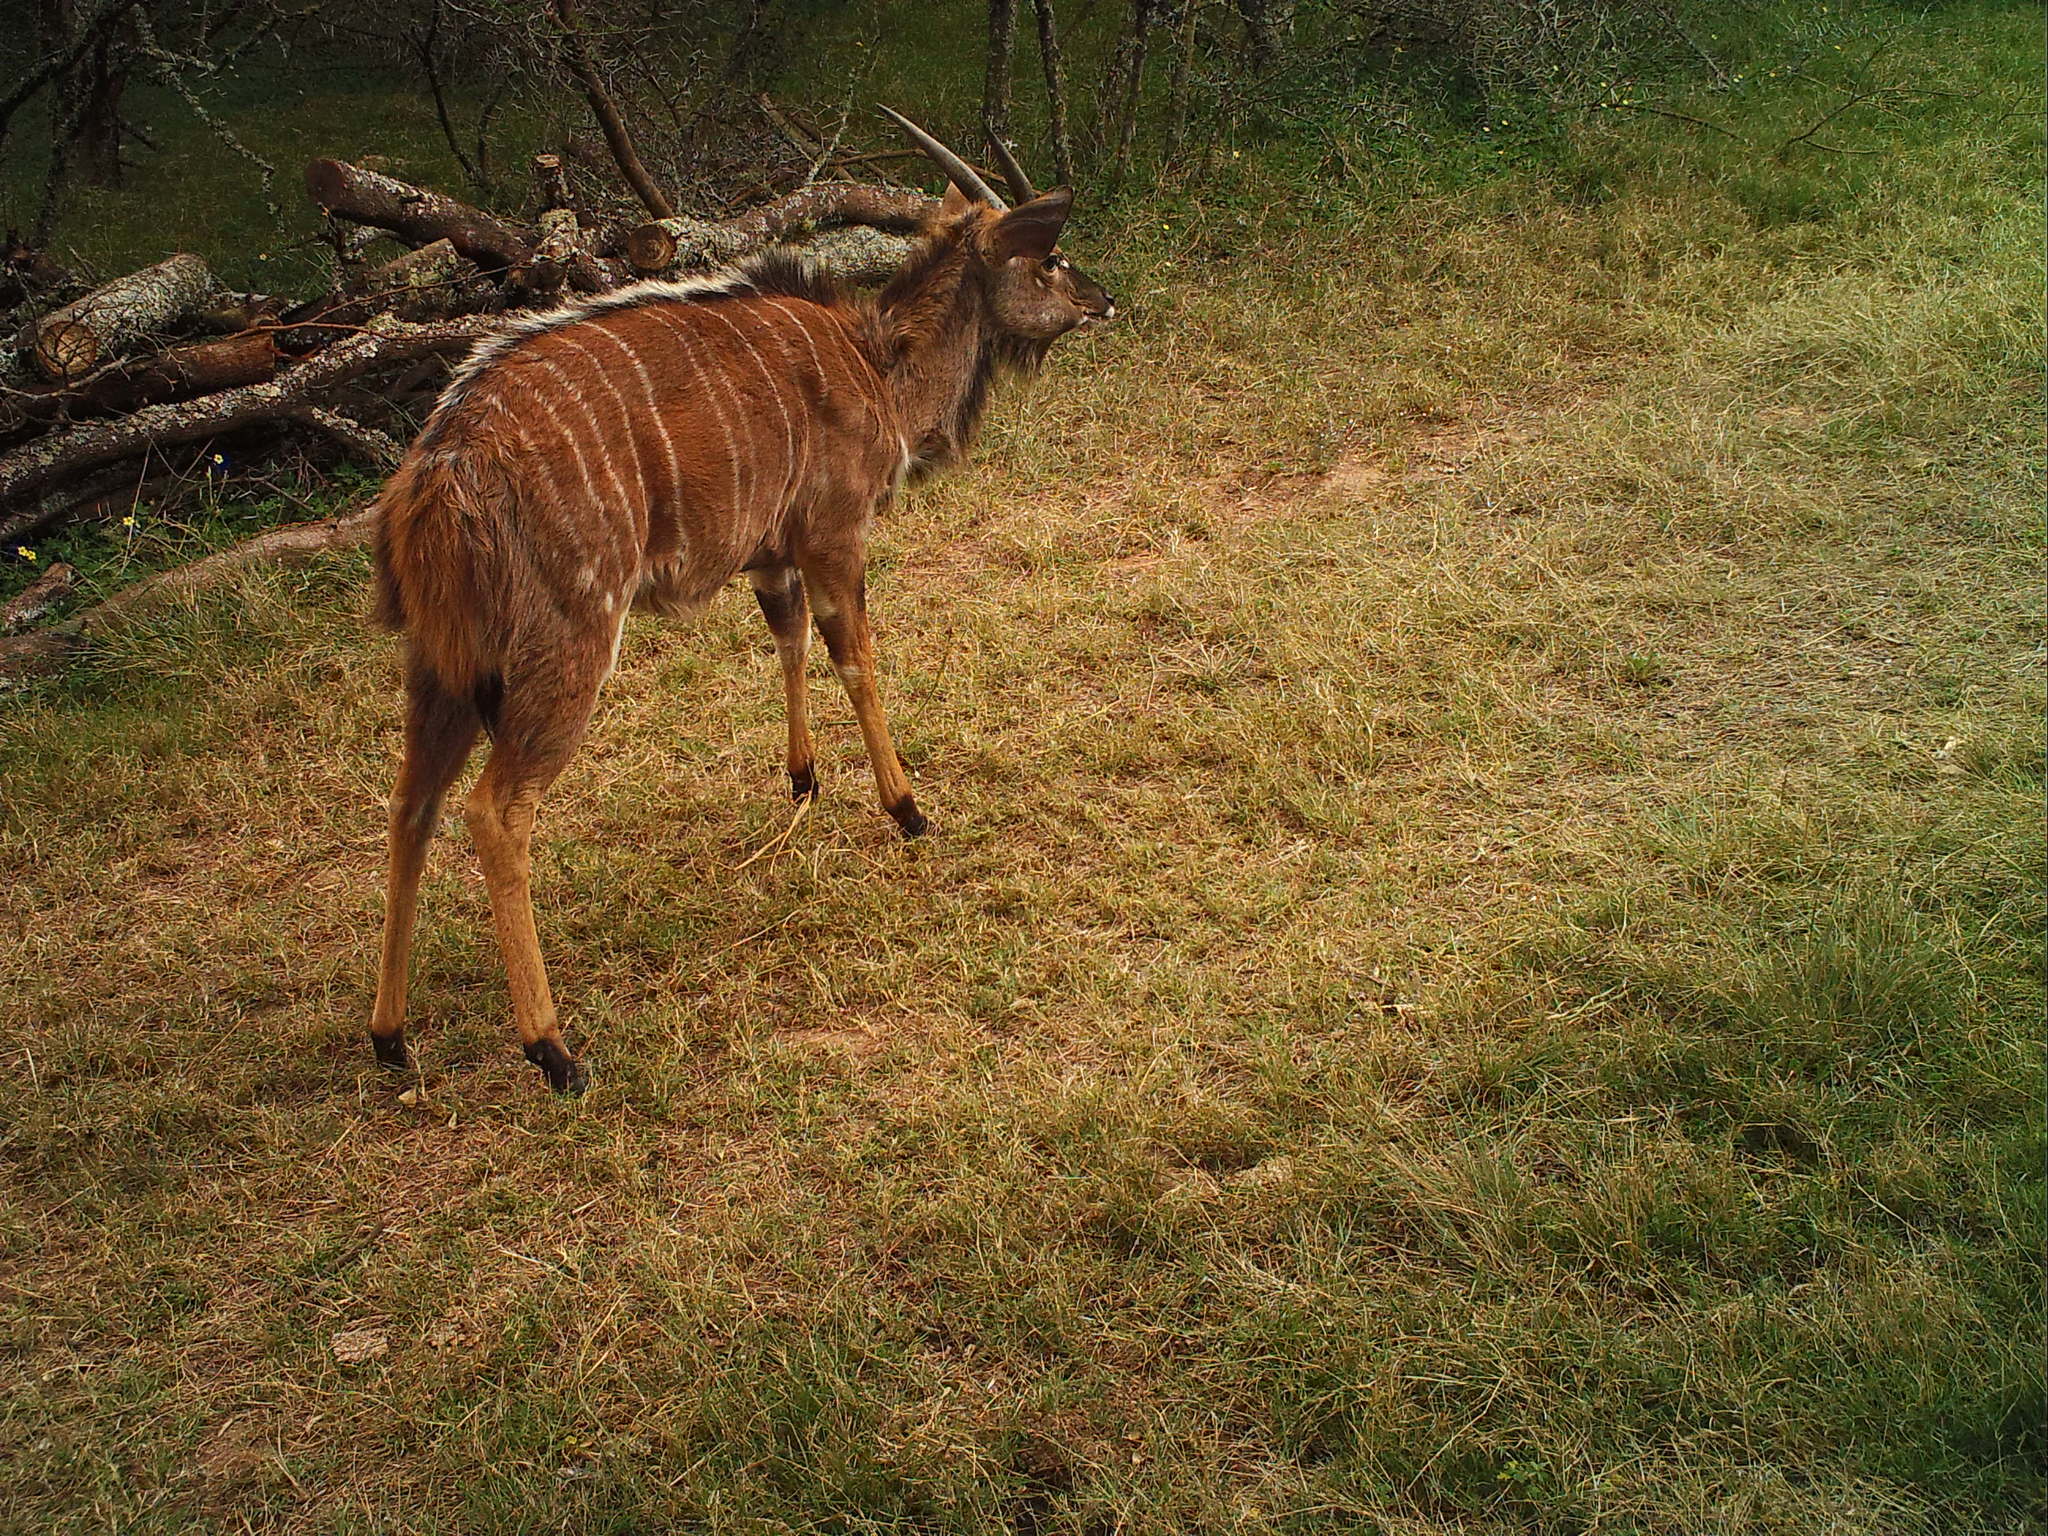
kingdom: Animalia
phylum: Chordata
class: Mammalia
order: Artiodactyla
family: Bovidae
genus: Tragelaphus
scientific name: Tragelaphus angasii
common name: Nyala
